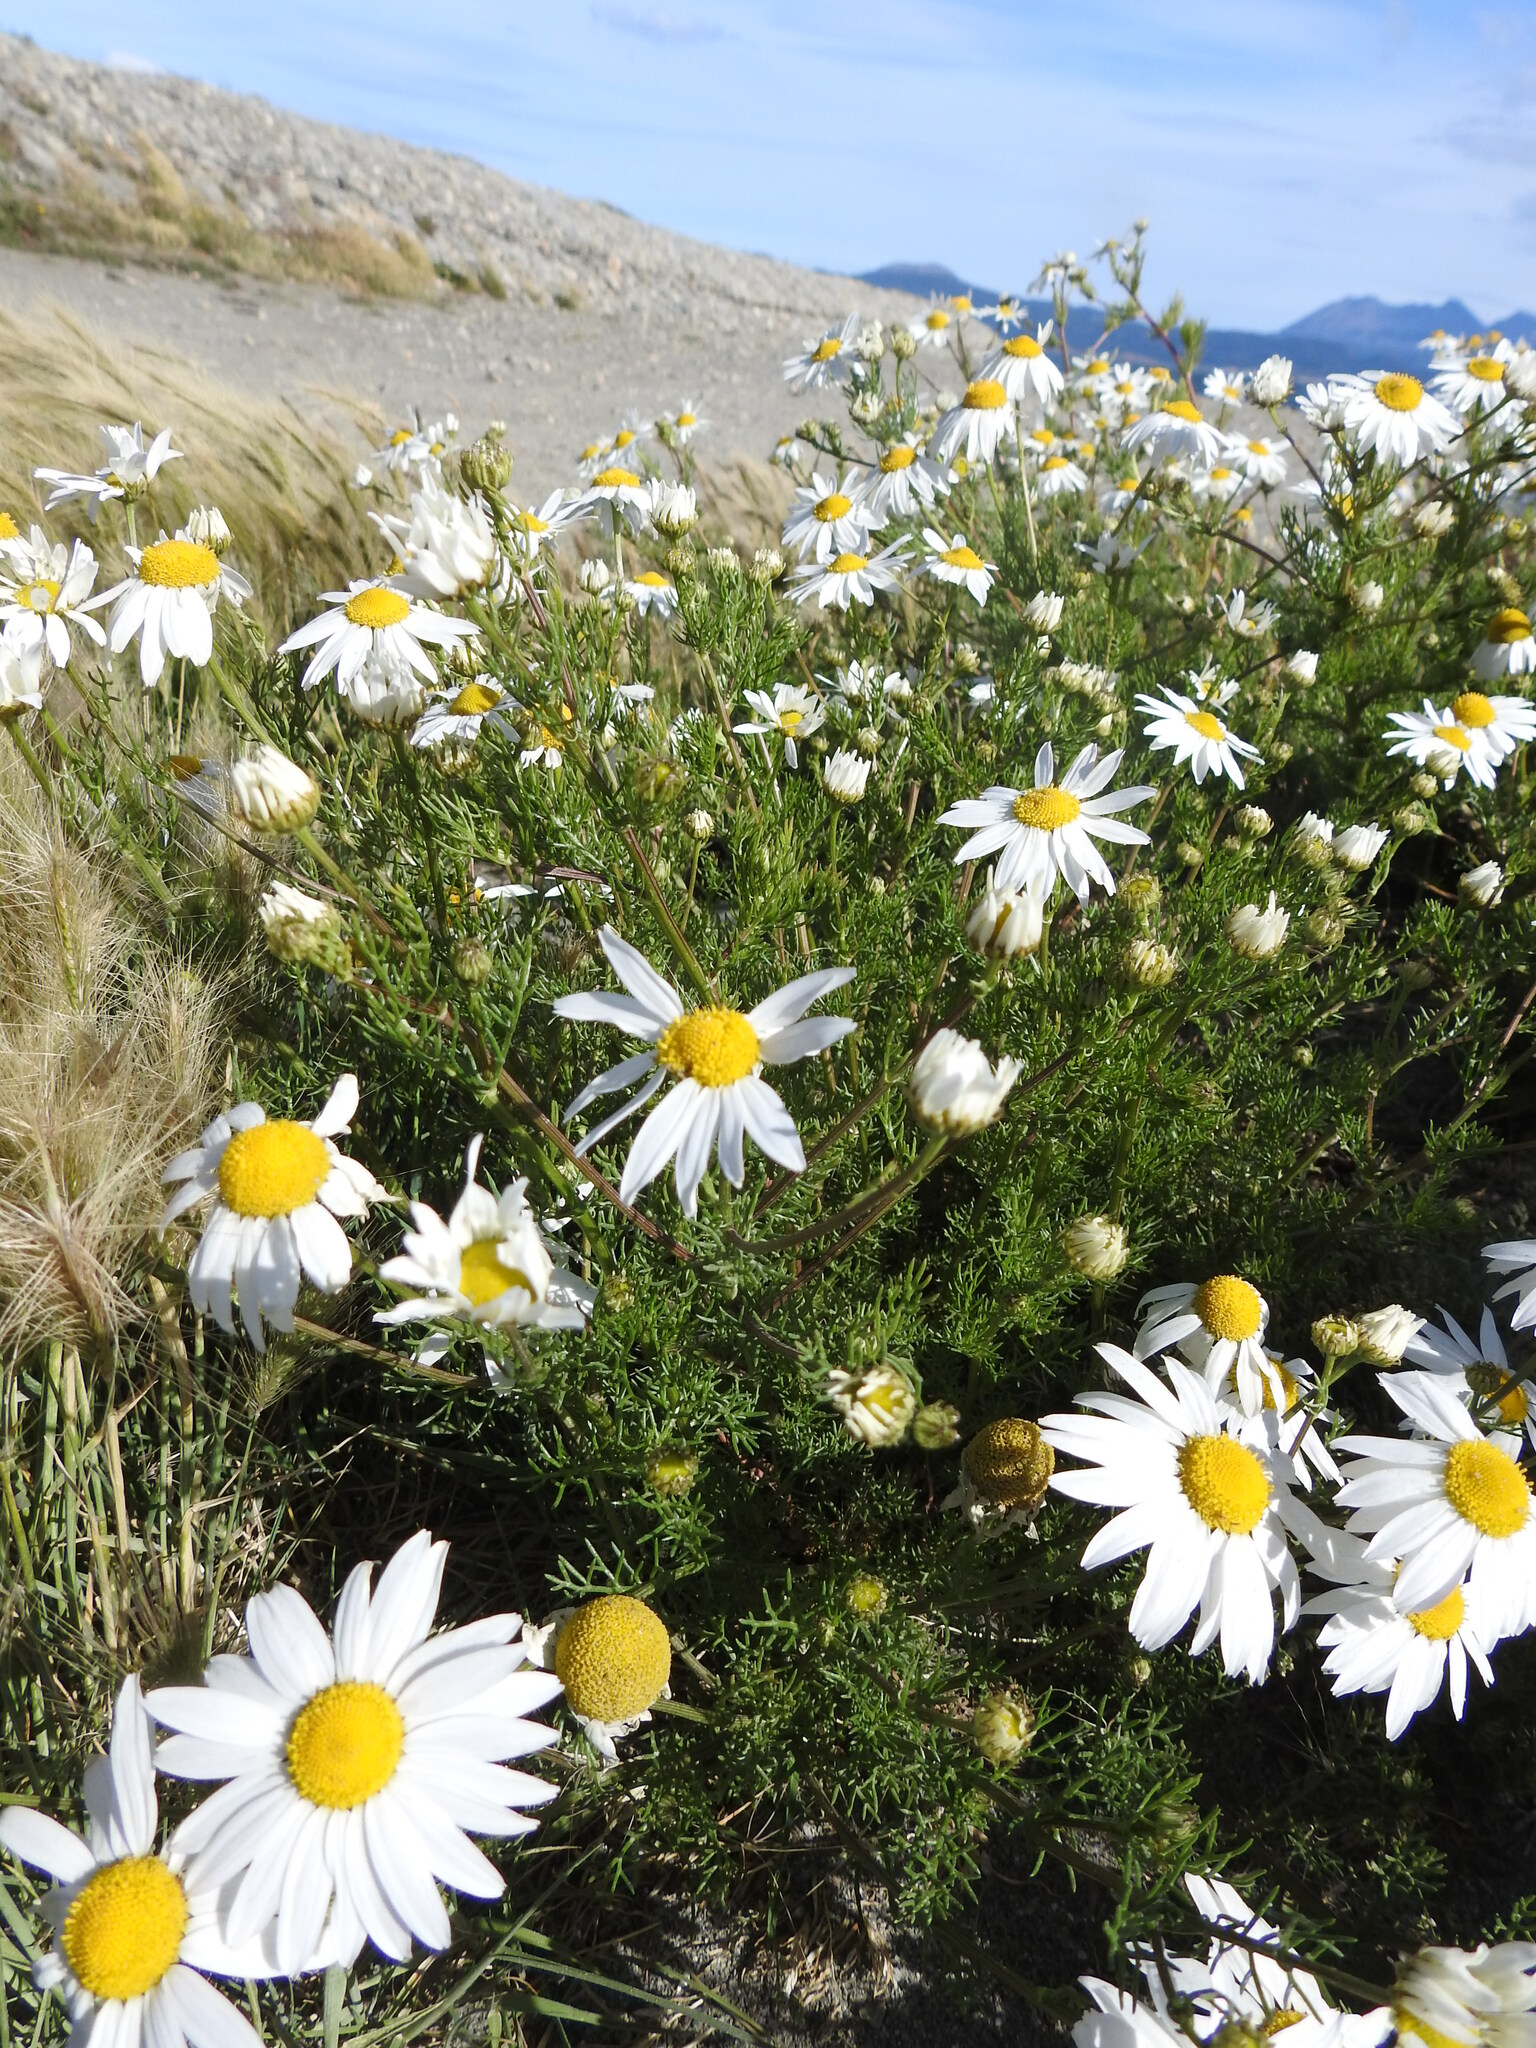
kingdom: Plantae
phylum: Tracheophyta
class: Magnoliopsida
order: Asterales
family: Asteraceae
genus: Tripleurospermum
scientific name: Tripleurospermum maritimum
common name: Sea mayweed
